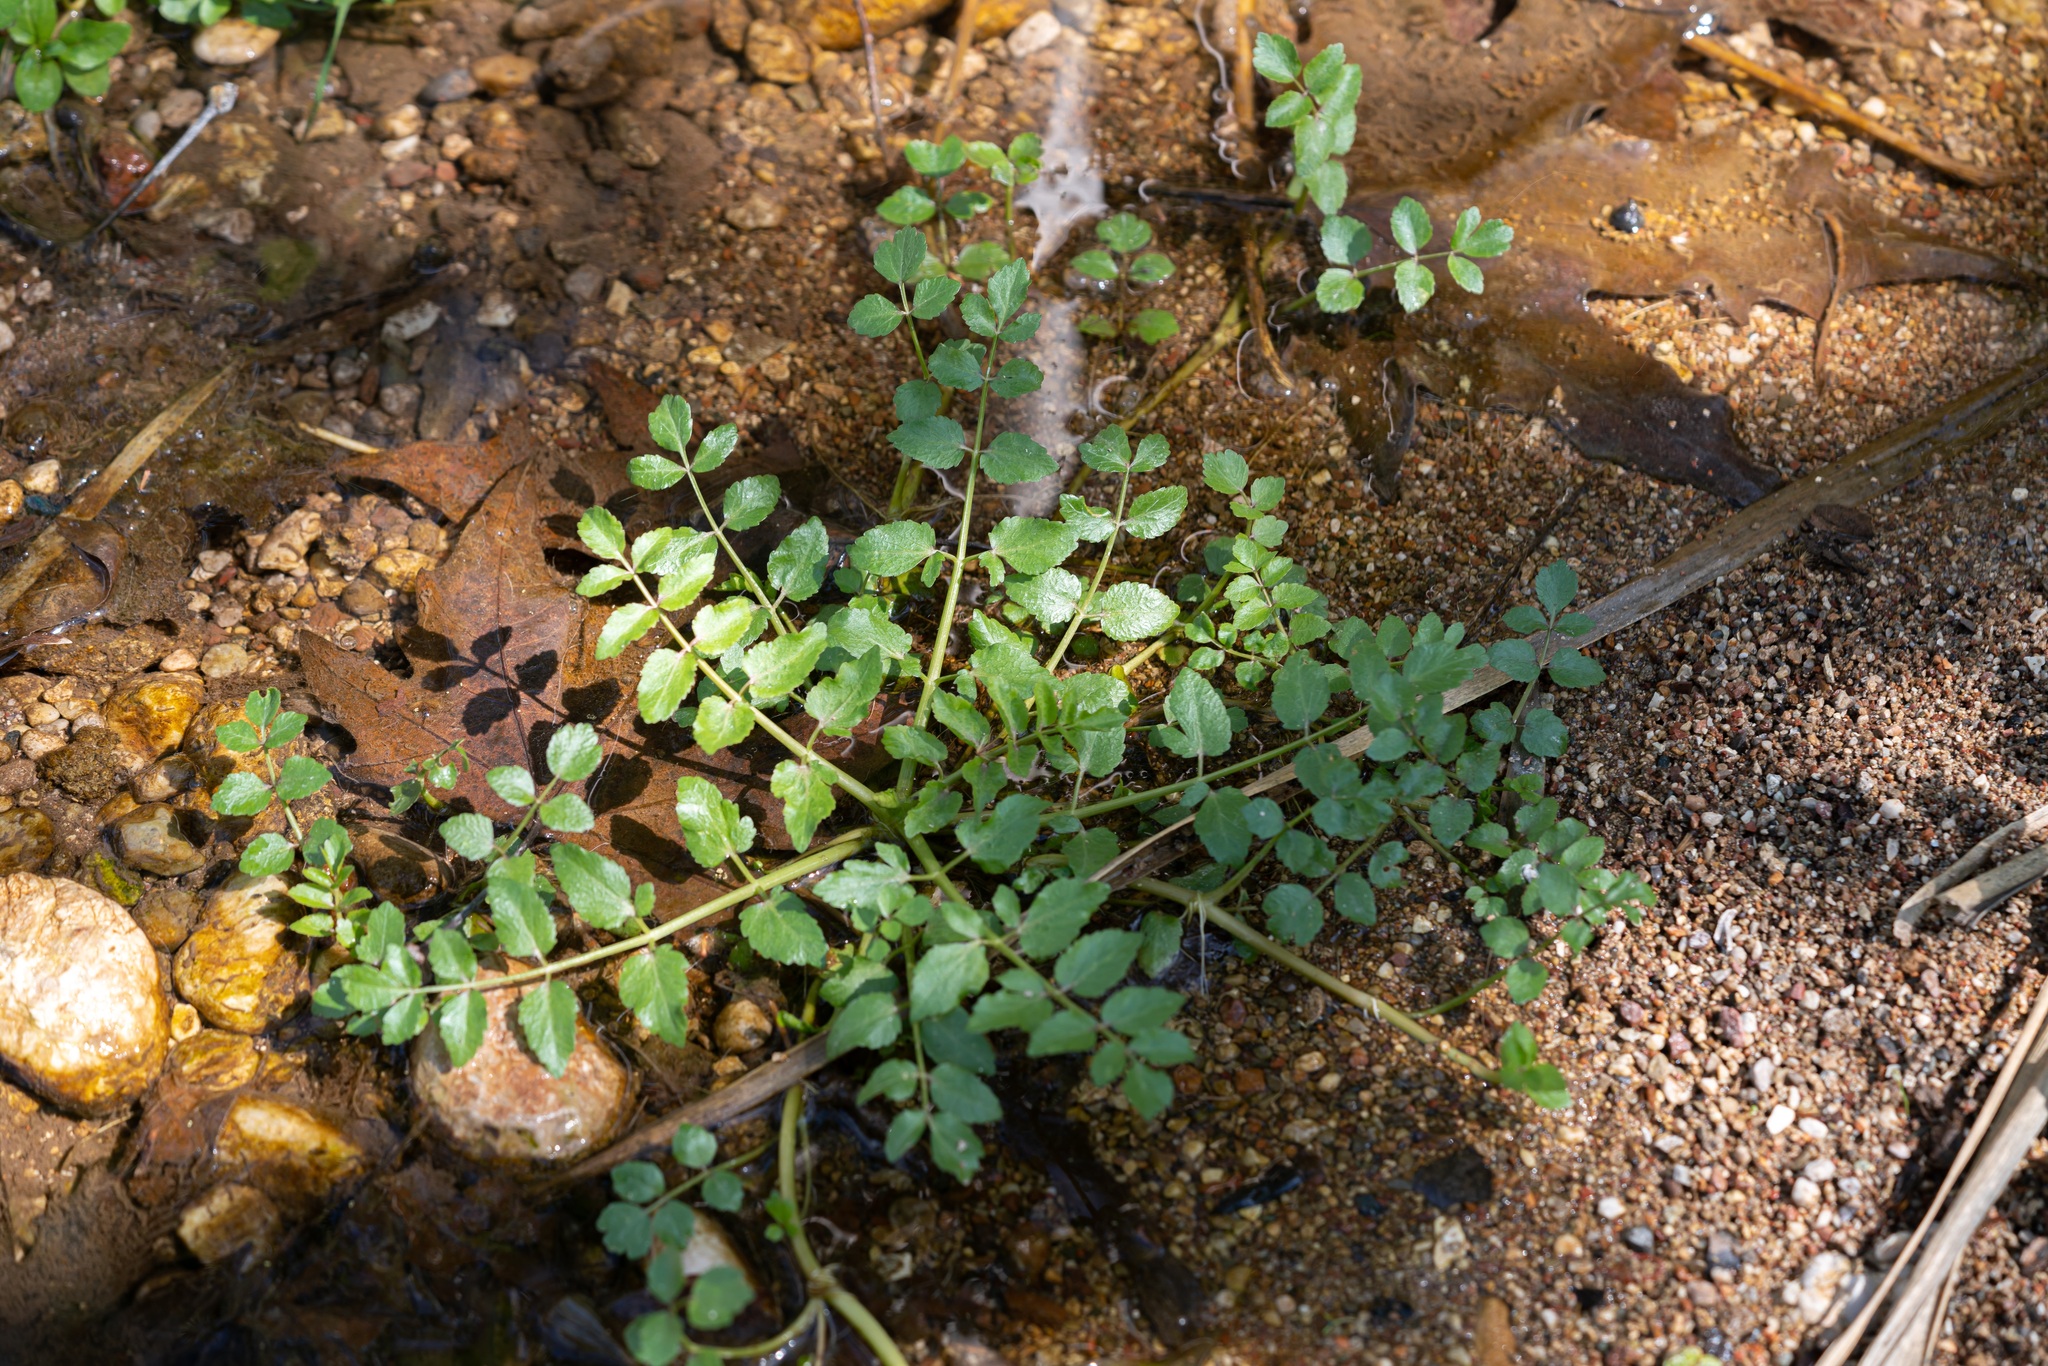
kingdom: Plantae
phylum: Tracheophyta
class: Magnoliopsida
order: Apiales
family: Apiaceae
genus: Helosciadium
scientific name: Helosciadium nodiflorum
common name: Fool's-watercress
